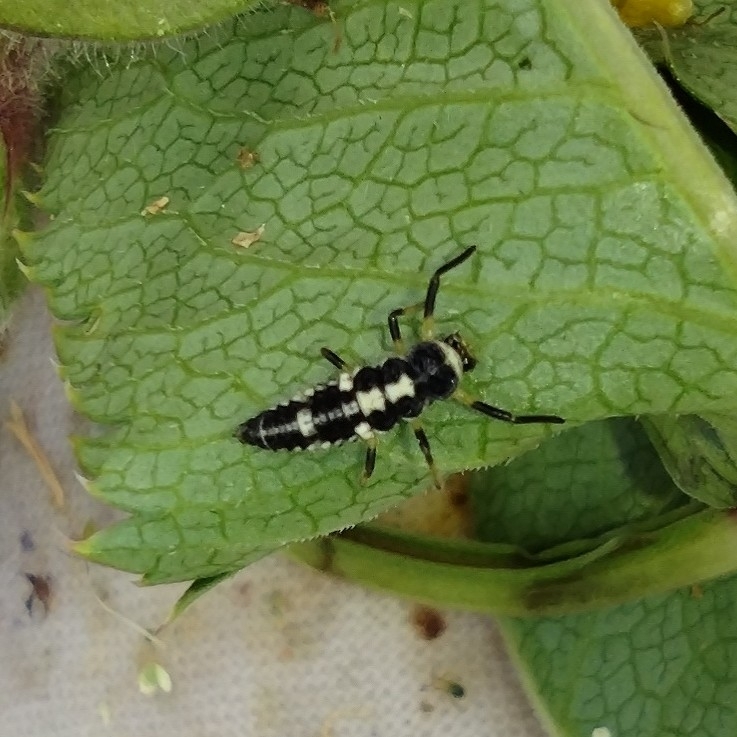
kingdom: Animalia
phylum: Arthropoda
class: Insecta
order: Coleoptera
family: Coccinellidae
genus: Propylaea
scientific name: Propylaea quatuordecimpunctata
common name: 14-spotted ladybird beetle
